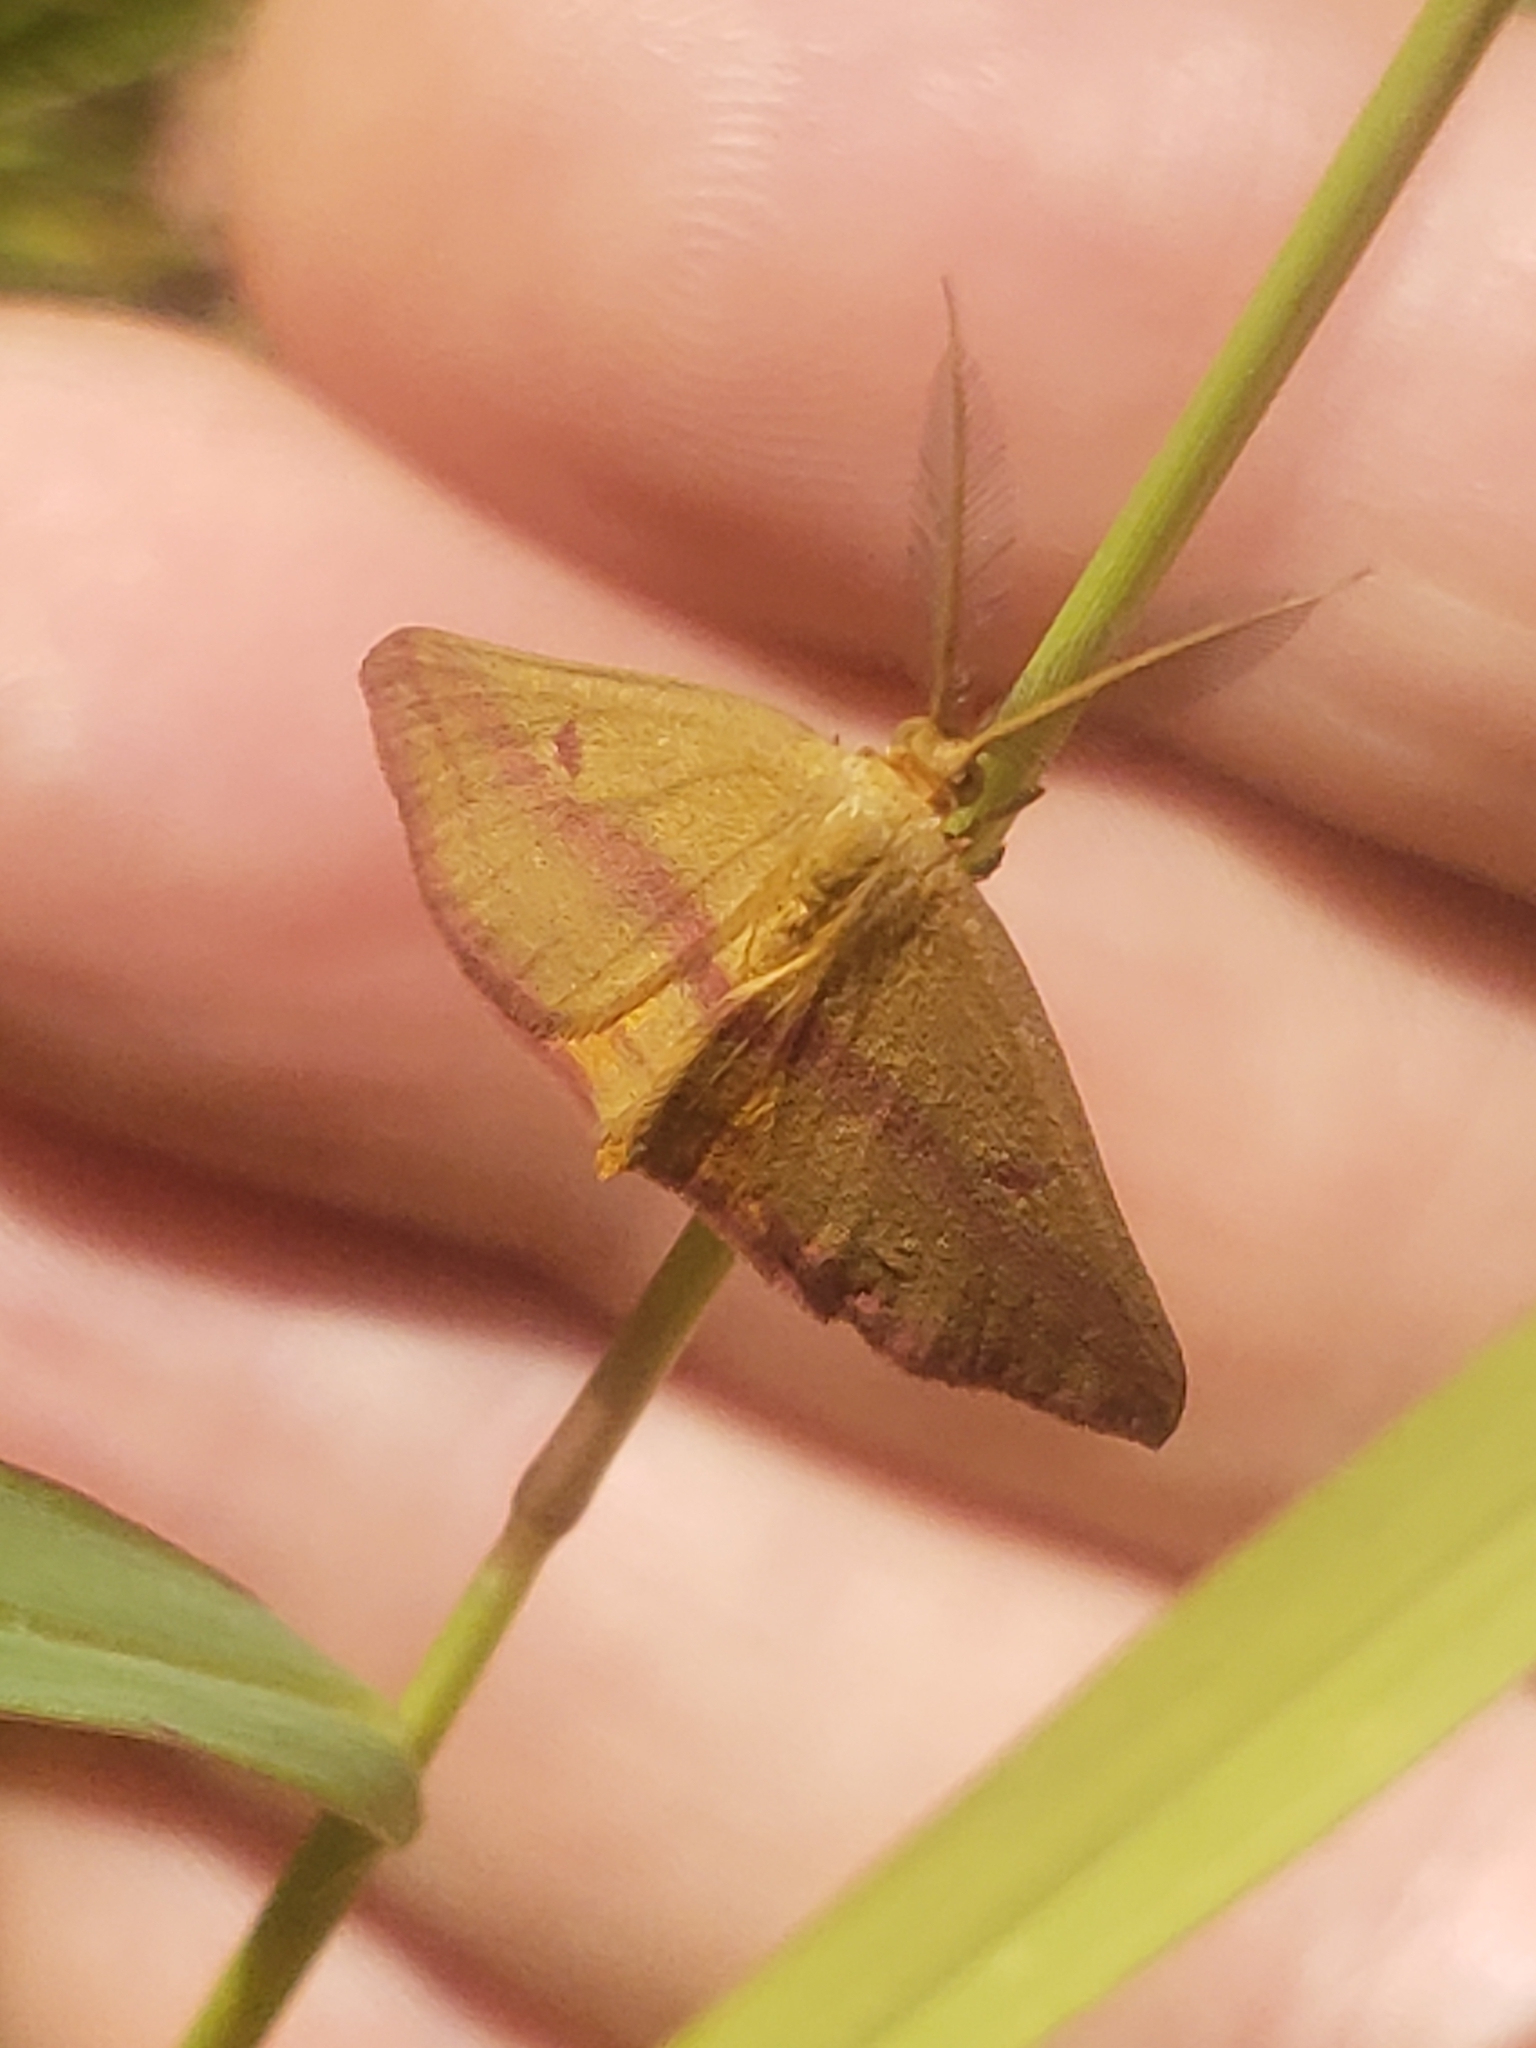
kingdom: Animalia
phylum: Arthropoda
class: Insecta
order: Lepidoptera
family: Geometridae
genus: Haematopis
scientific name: Haematopis grataria
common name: Chickweed geometer
